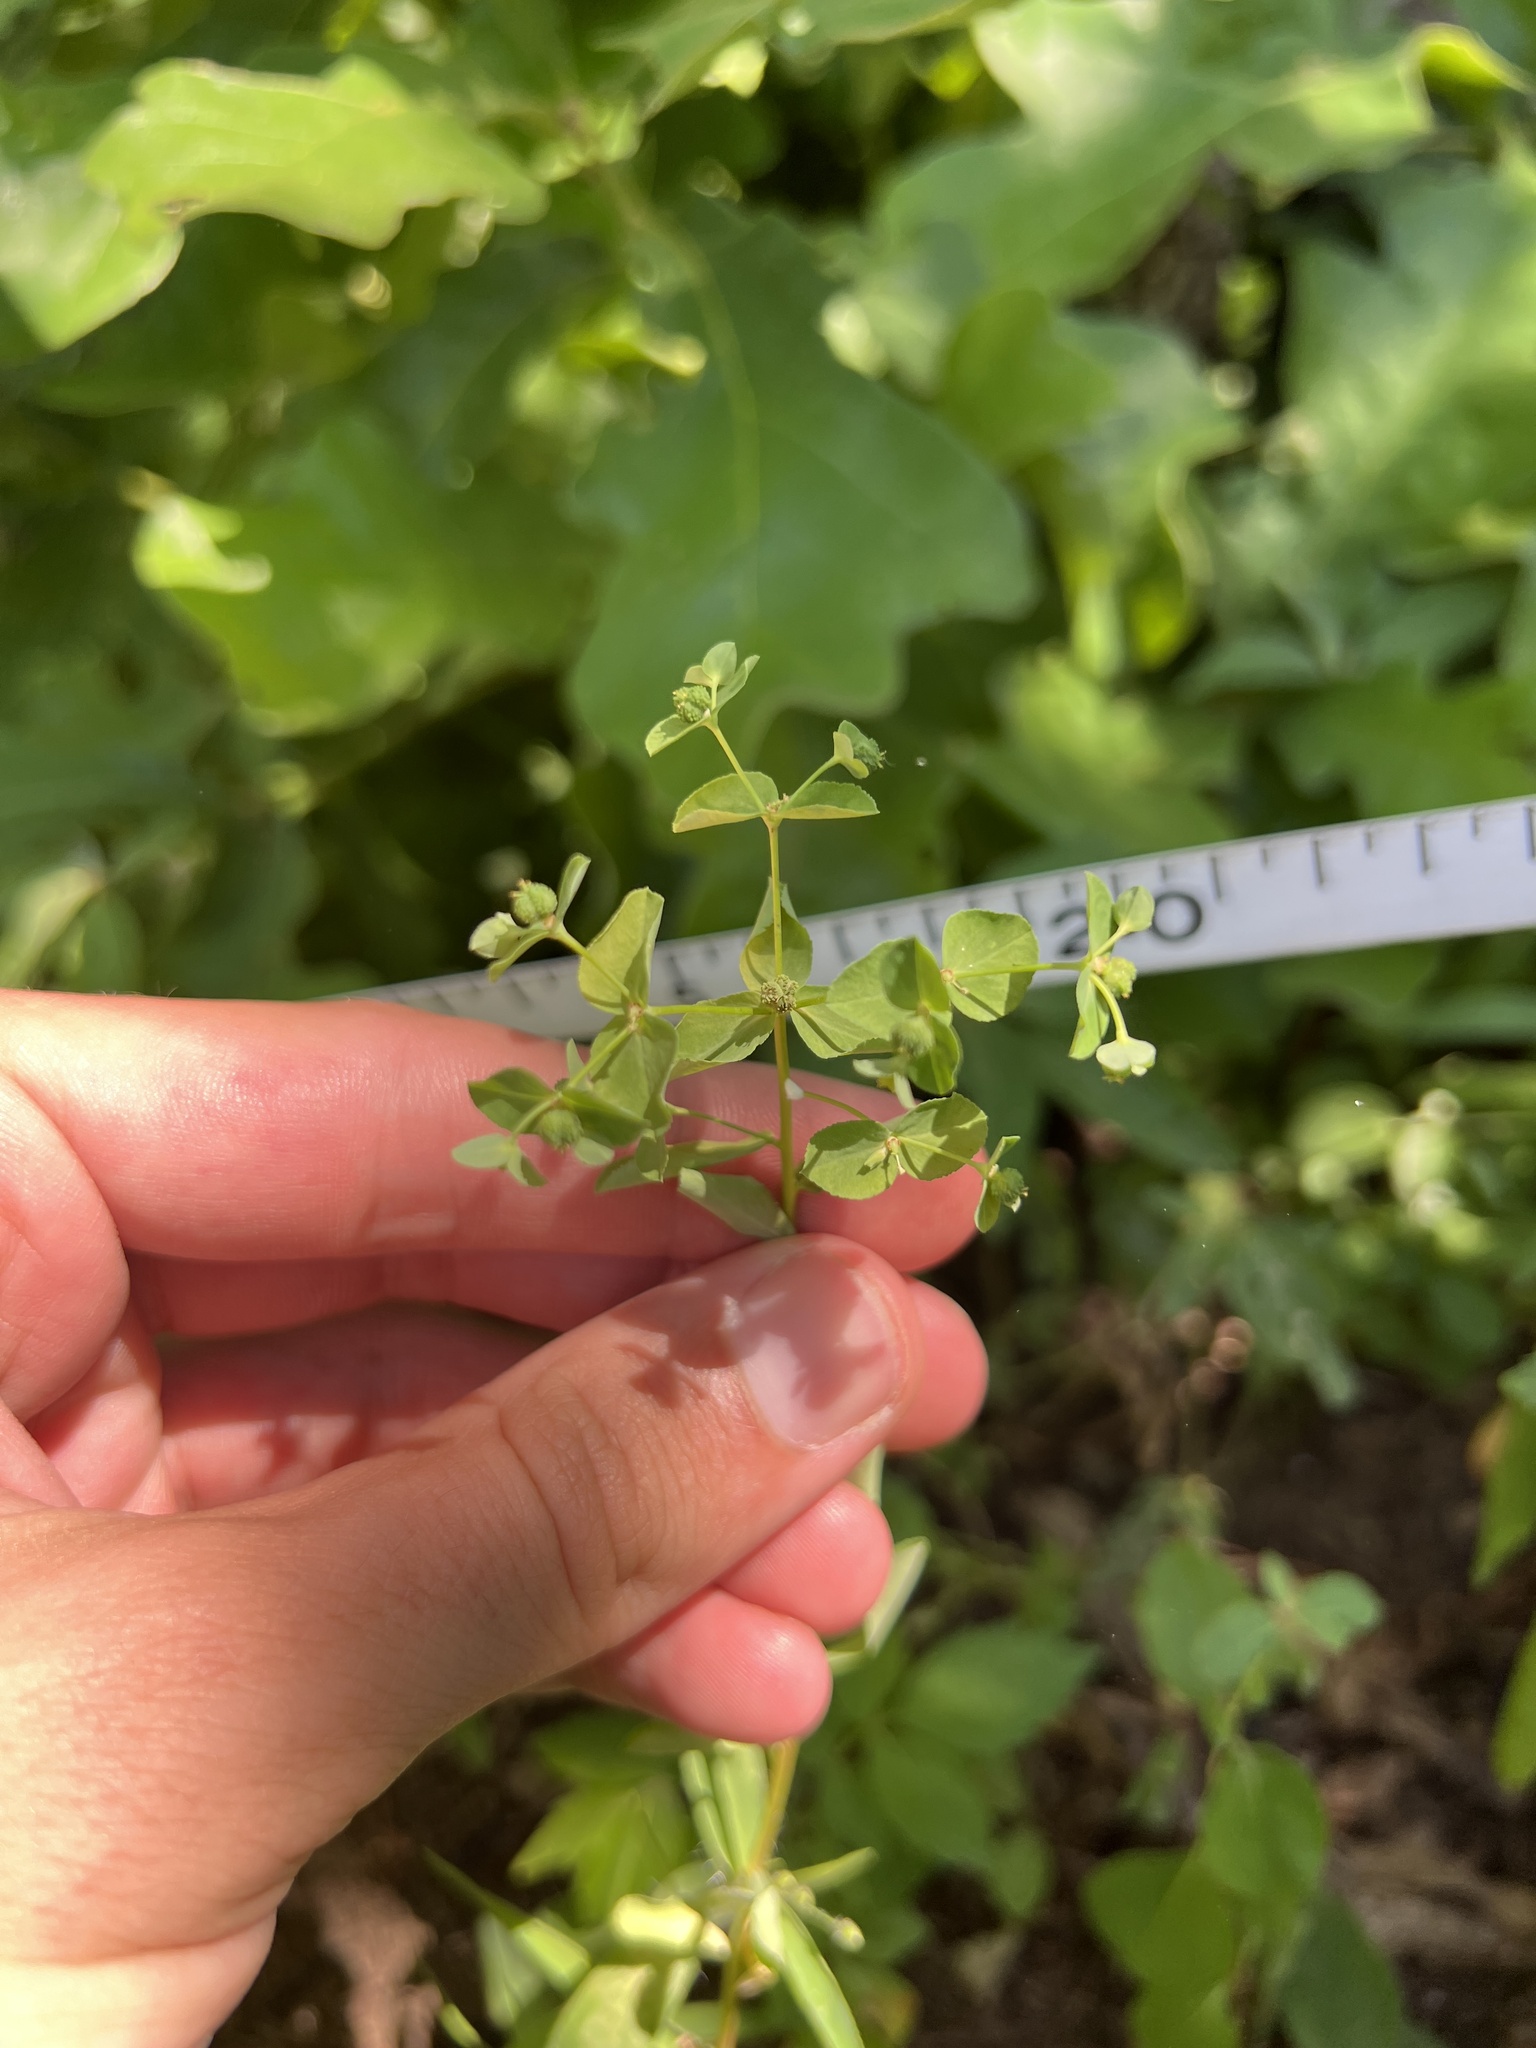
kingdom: Plantae
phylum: Tracheophyta
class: Magnoliopsida
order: Malpighiales
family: Euphorbiaceae
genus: Euphorbia
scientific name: Euphorbia spathulata
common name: Blunt spurge
